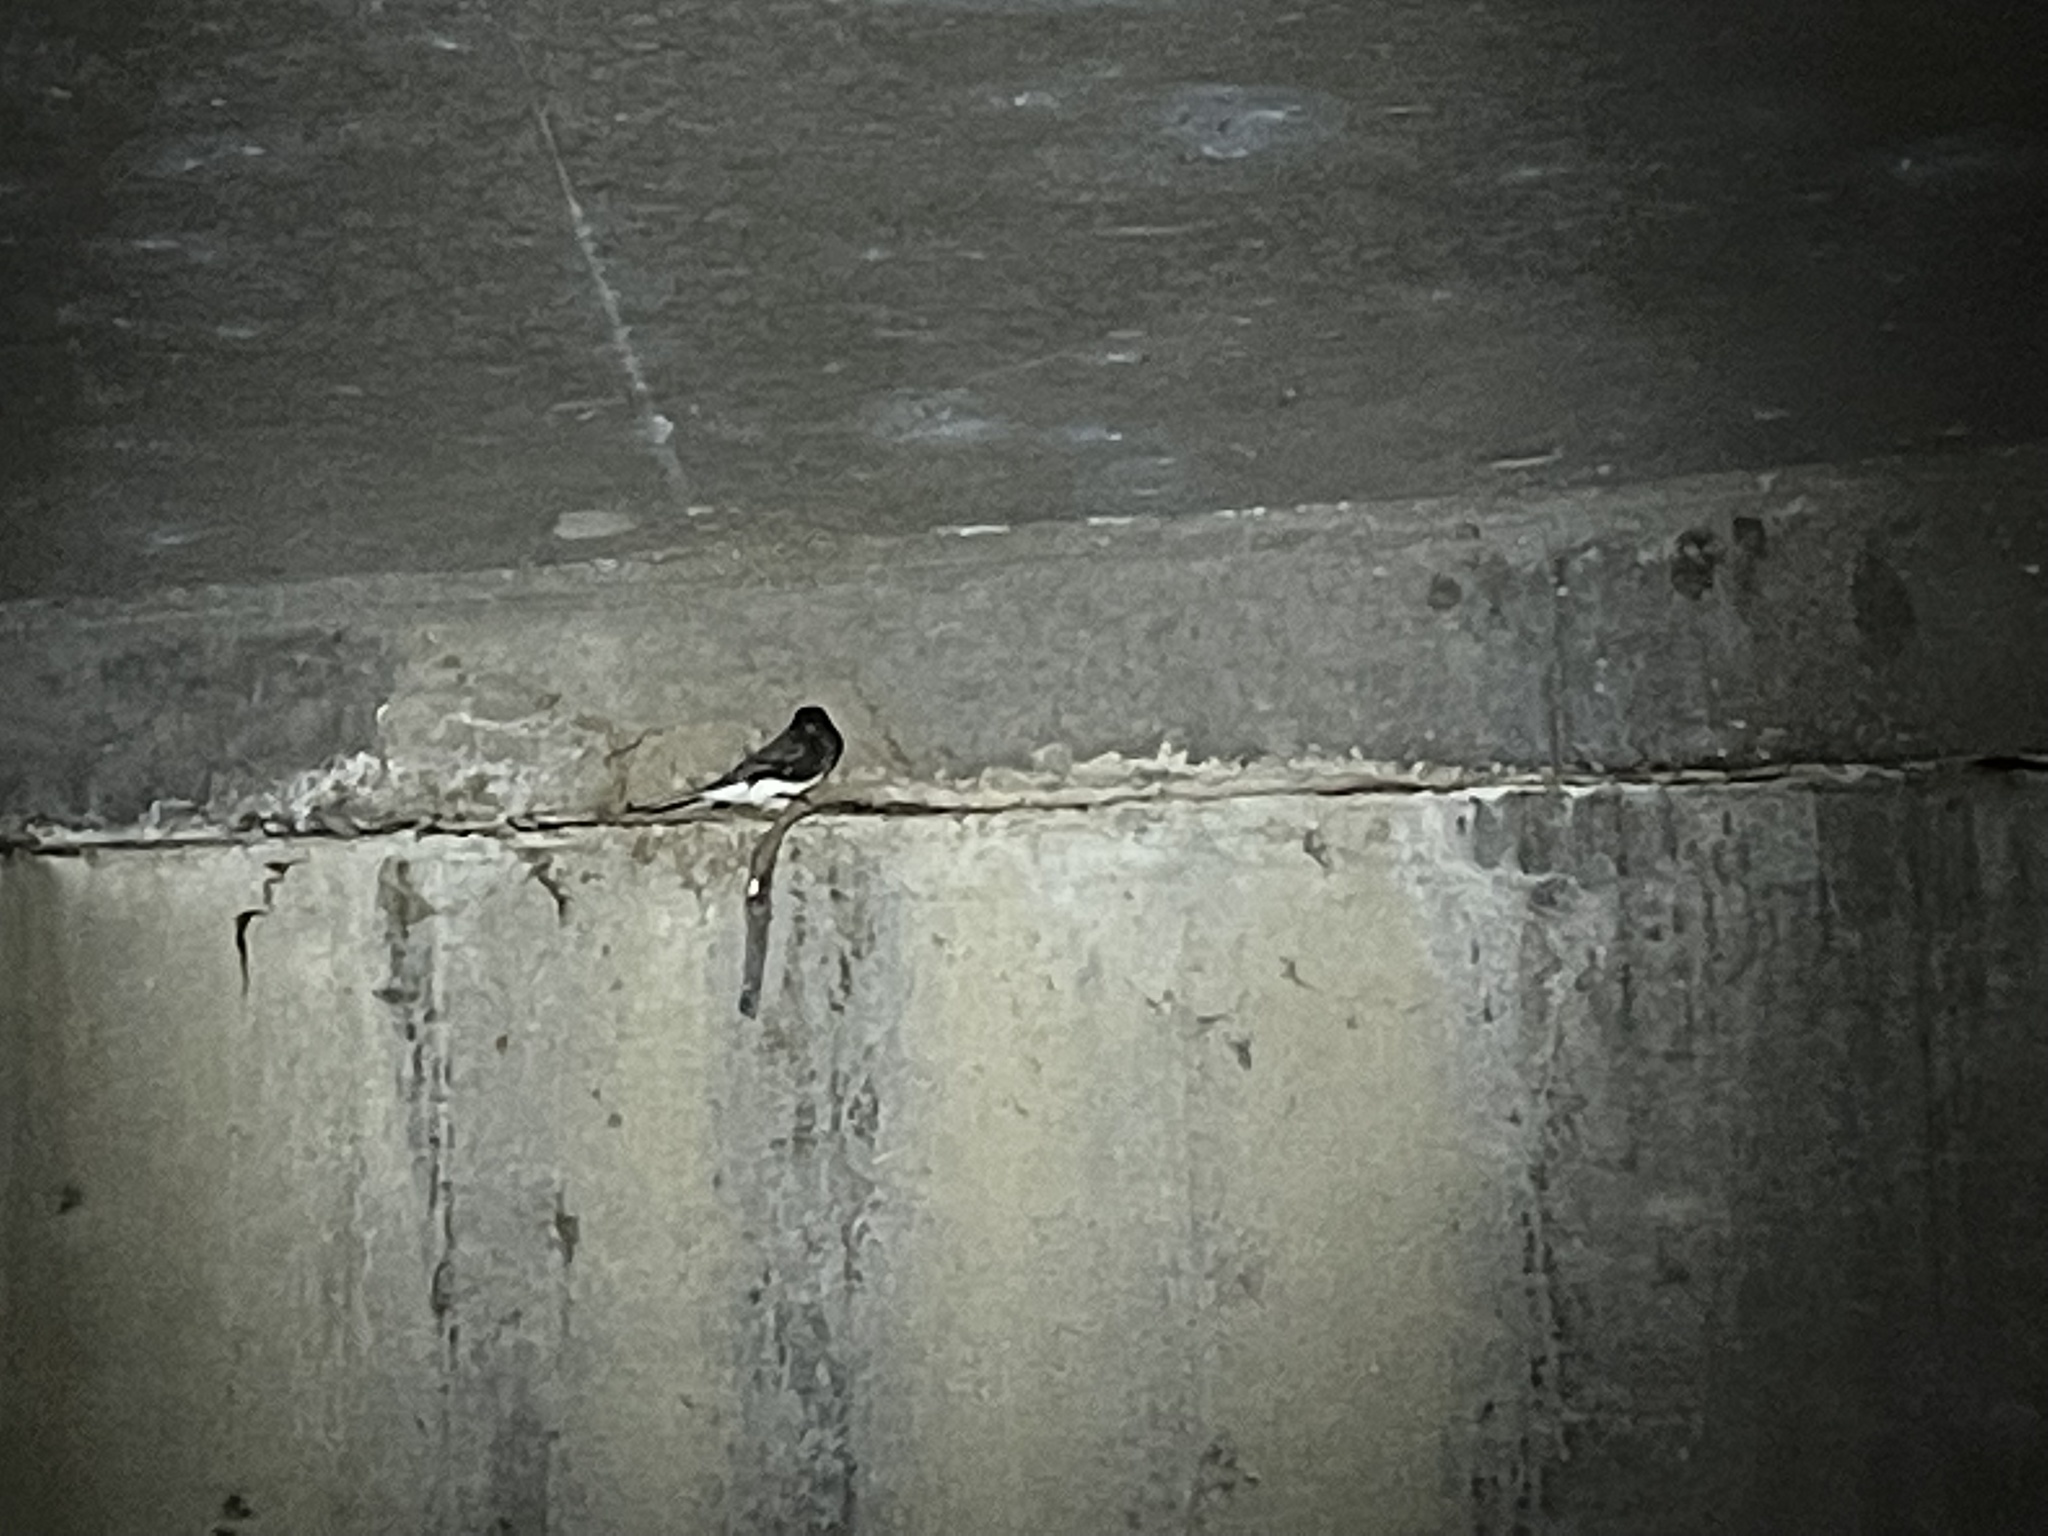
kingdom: Animalia
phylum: Chordata
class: Aves
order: Passeriformes
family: Tyrannidae
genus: Sayornis
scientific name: Sayornis nigricans
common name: Black phoebe
